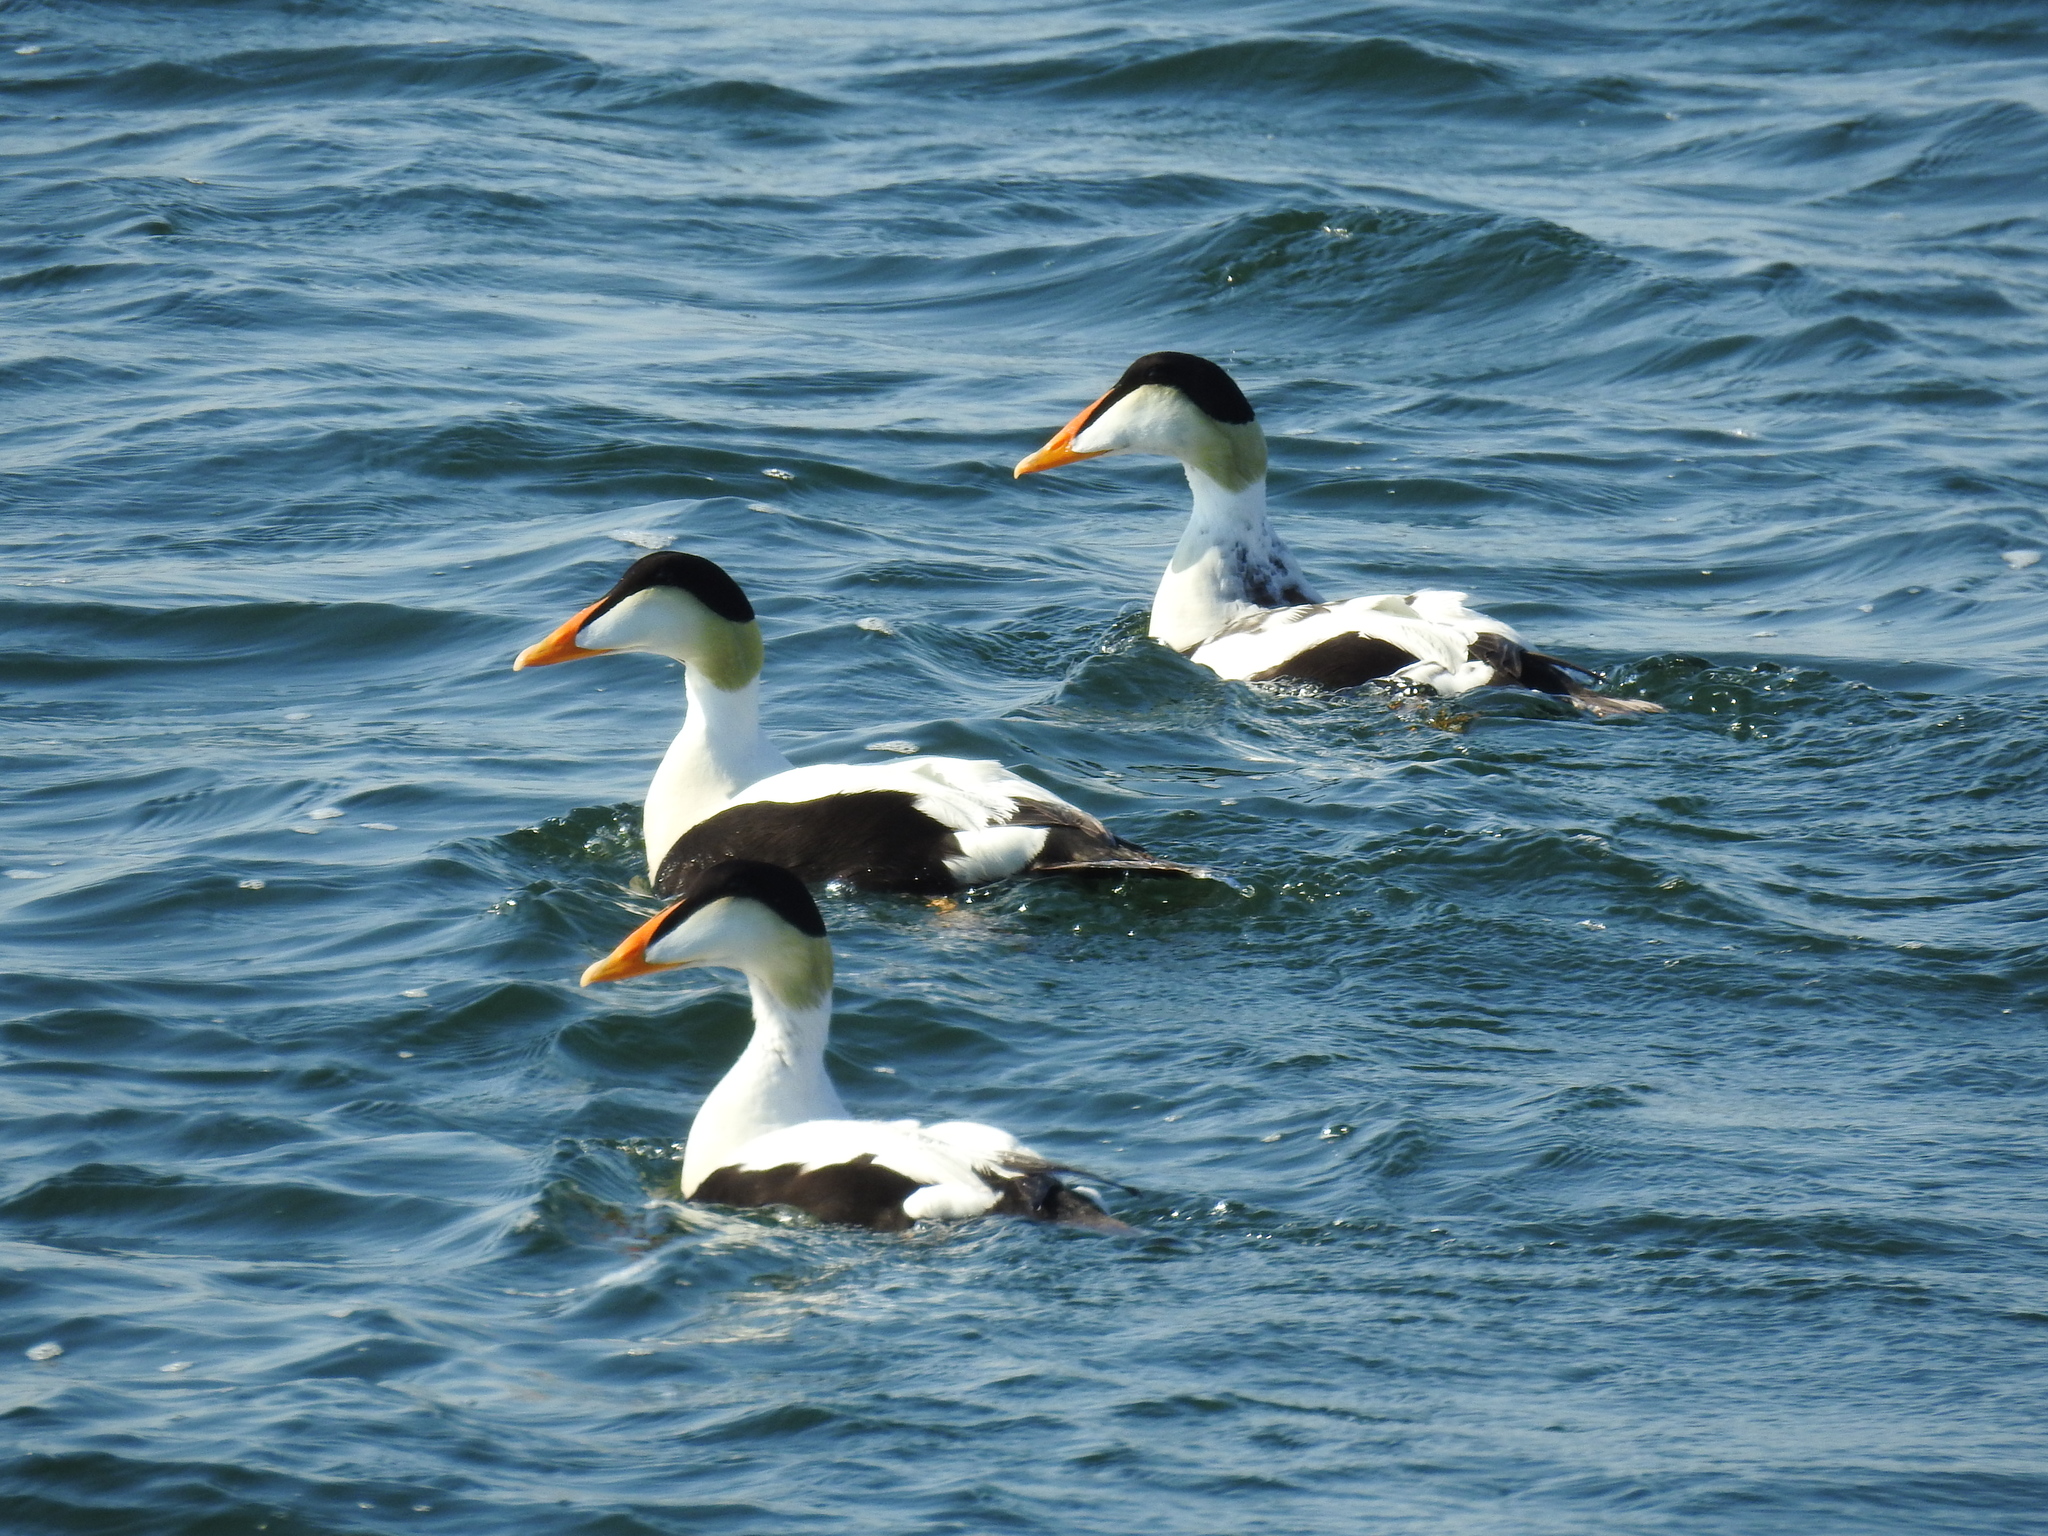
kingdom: Animalia
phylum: Chordata
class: Aves
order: Anseriformes
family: Anatidae
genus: Somateria
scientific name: Somateria mollissima
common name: Common eider
